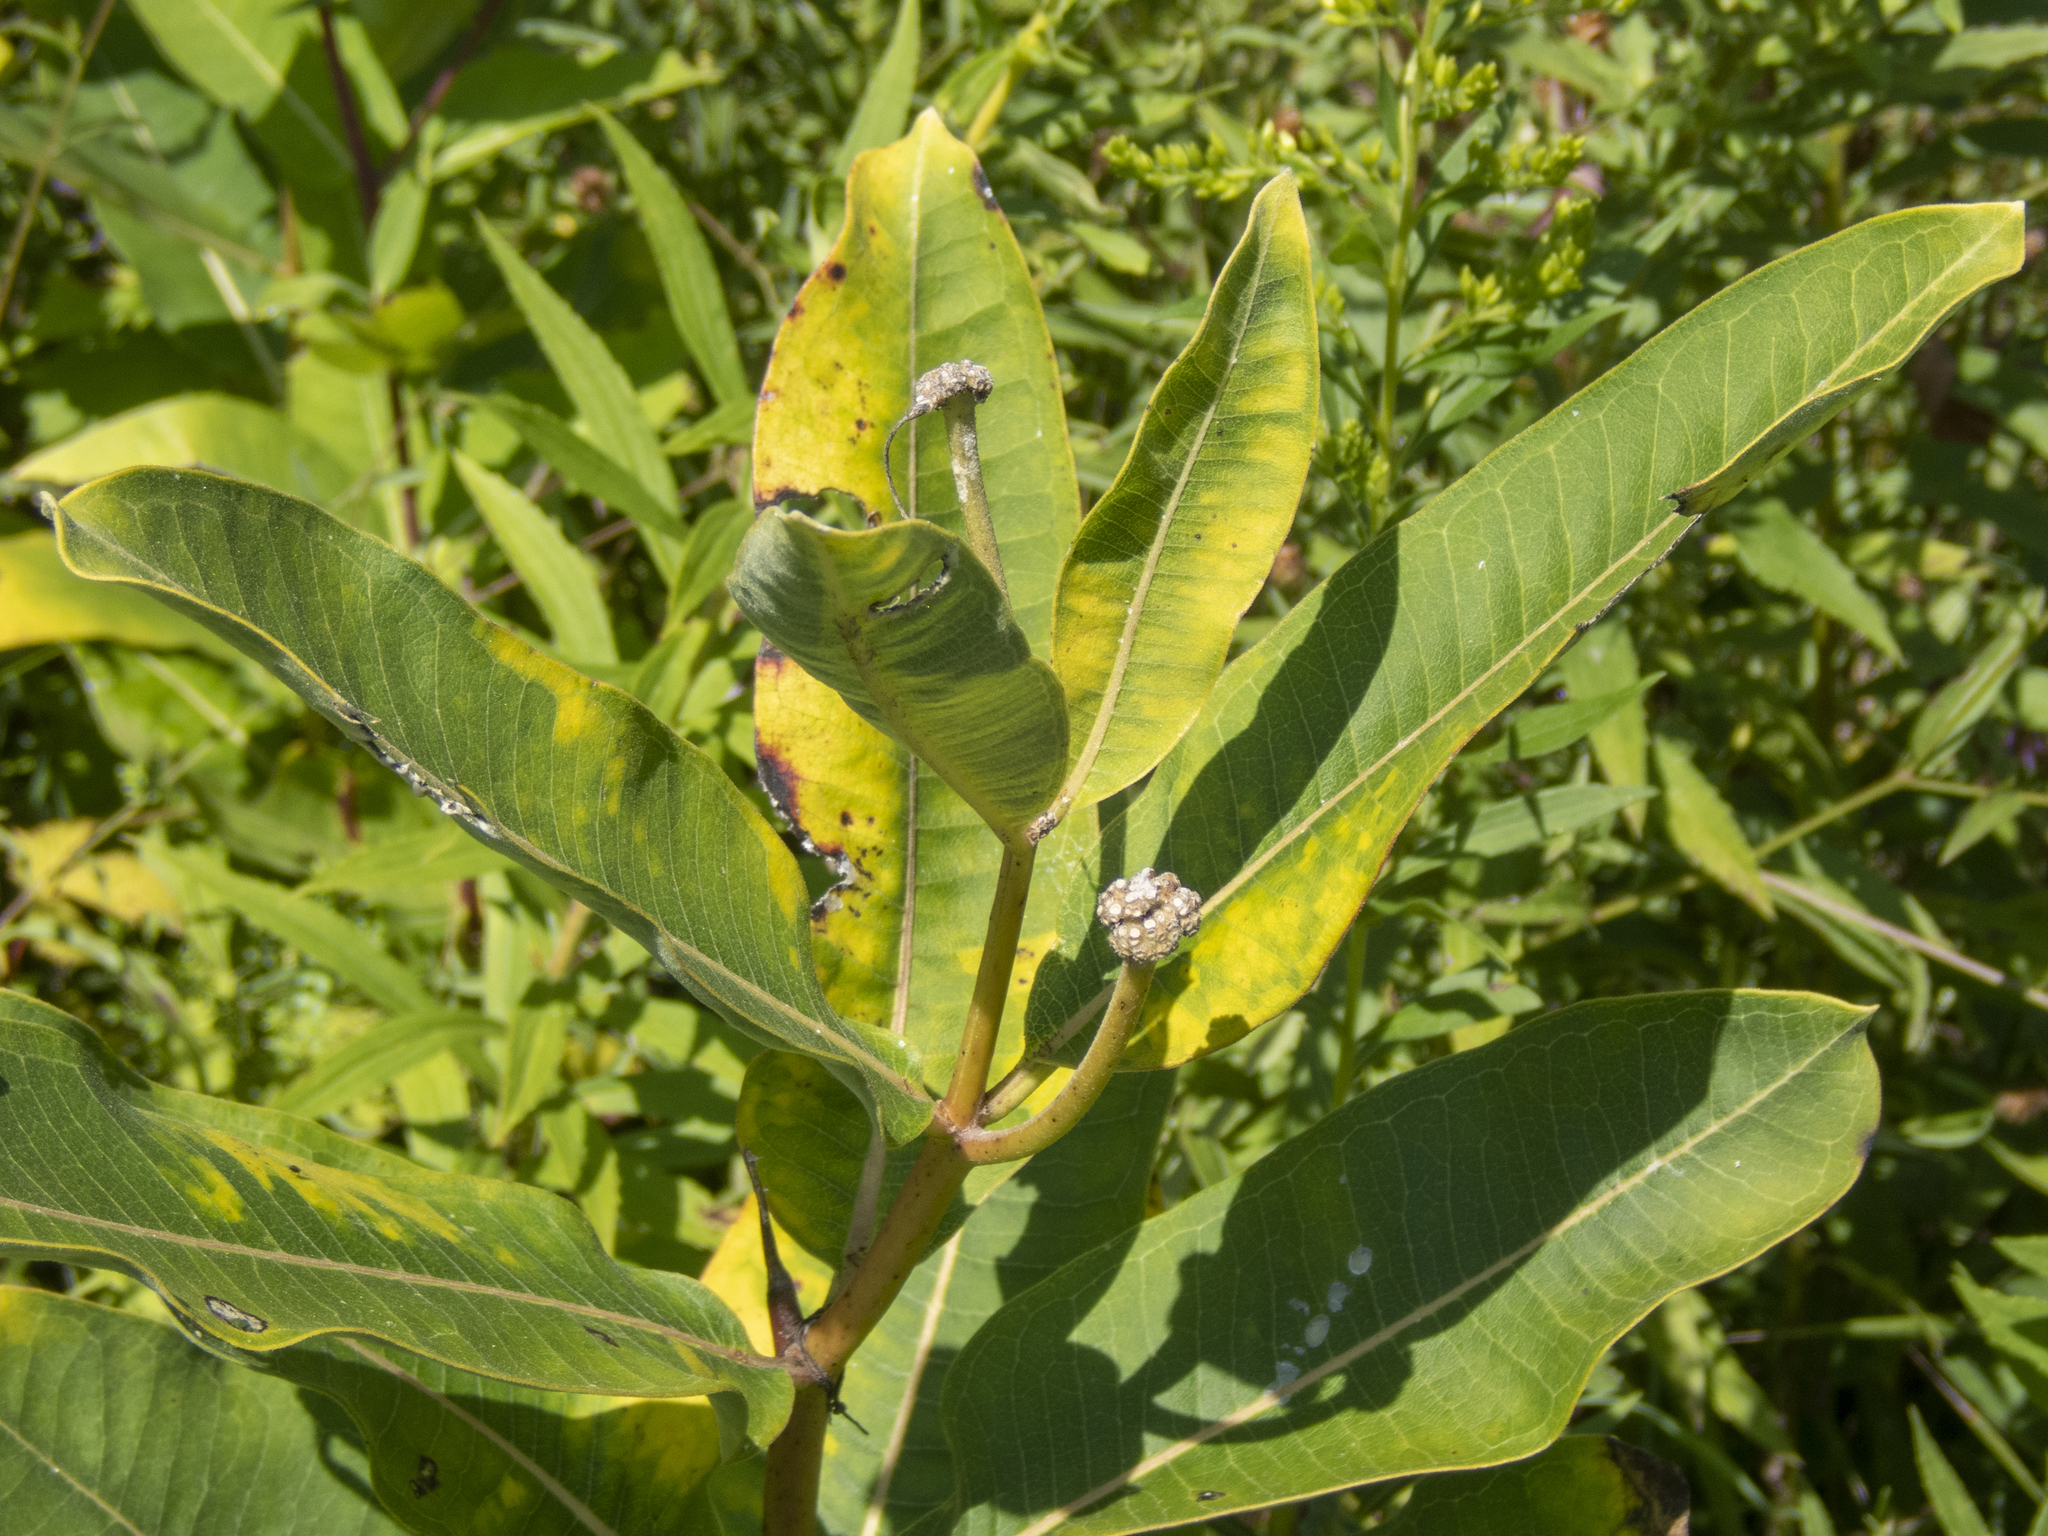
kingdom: Plantae
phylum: Tracheophyta
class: Magnoliopsida
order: Gentianales
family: Apocynaceae
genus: Asclepias
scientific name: Asclepias syriaca
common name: Common milkweed
